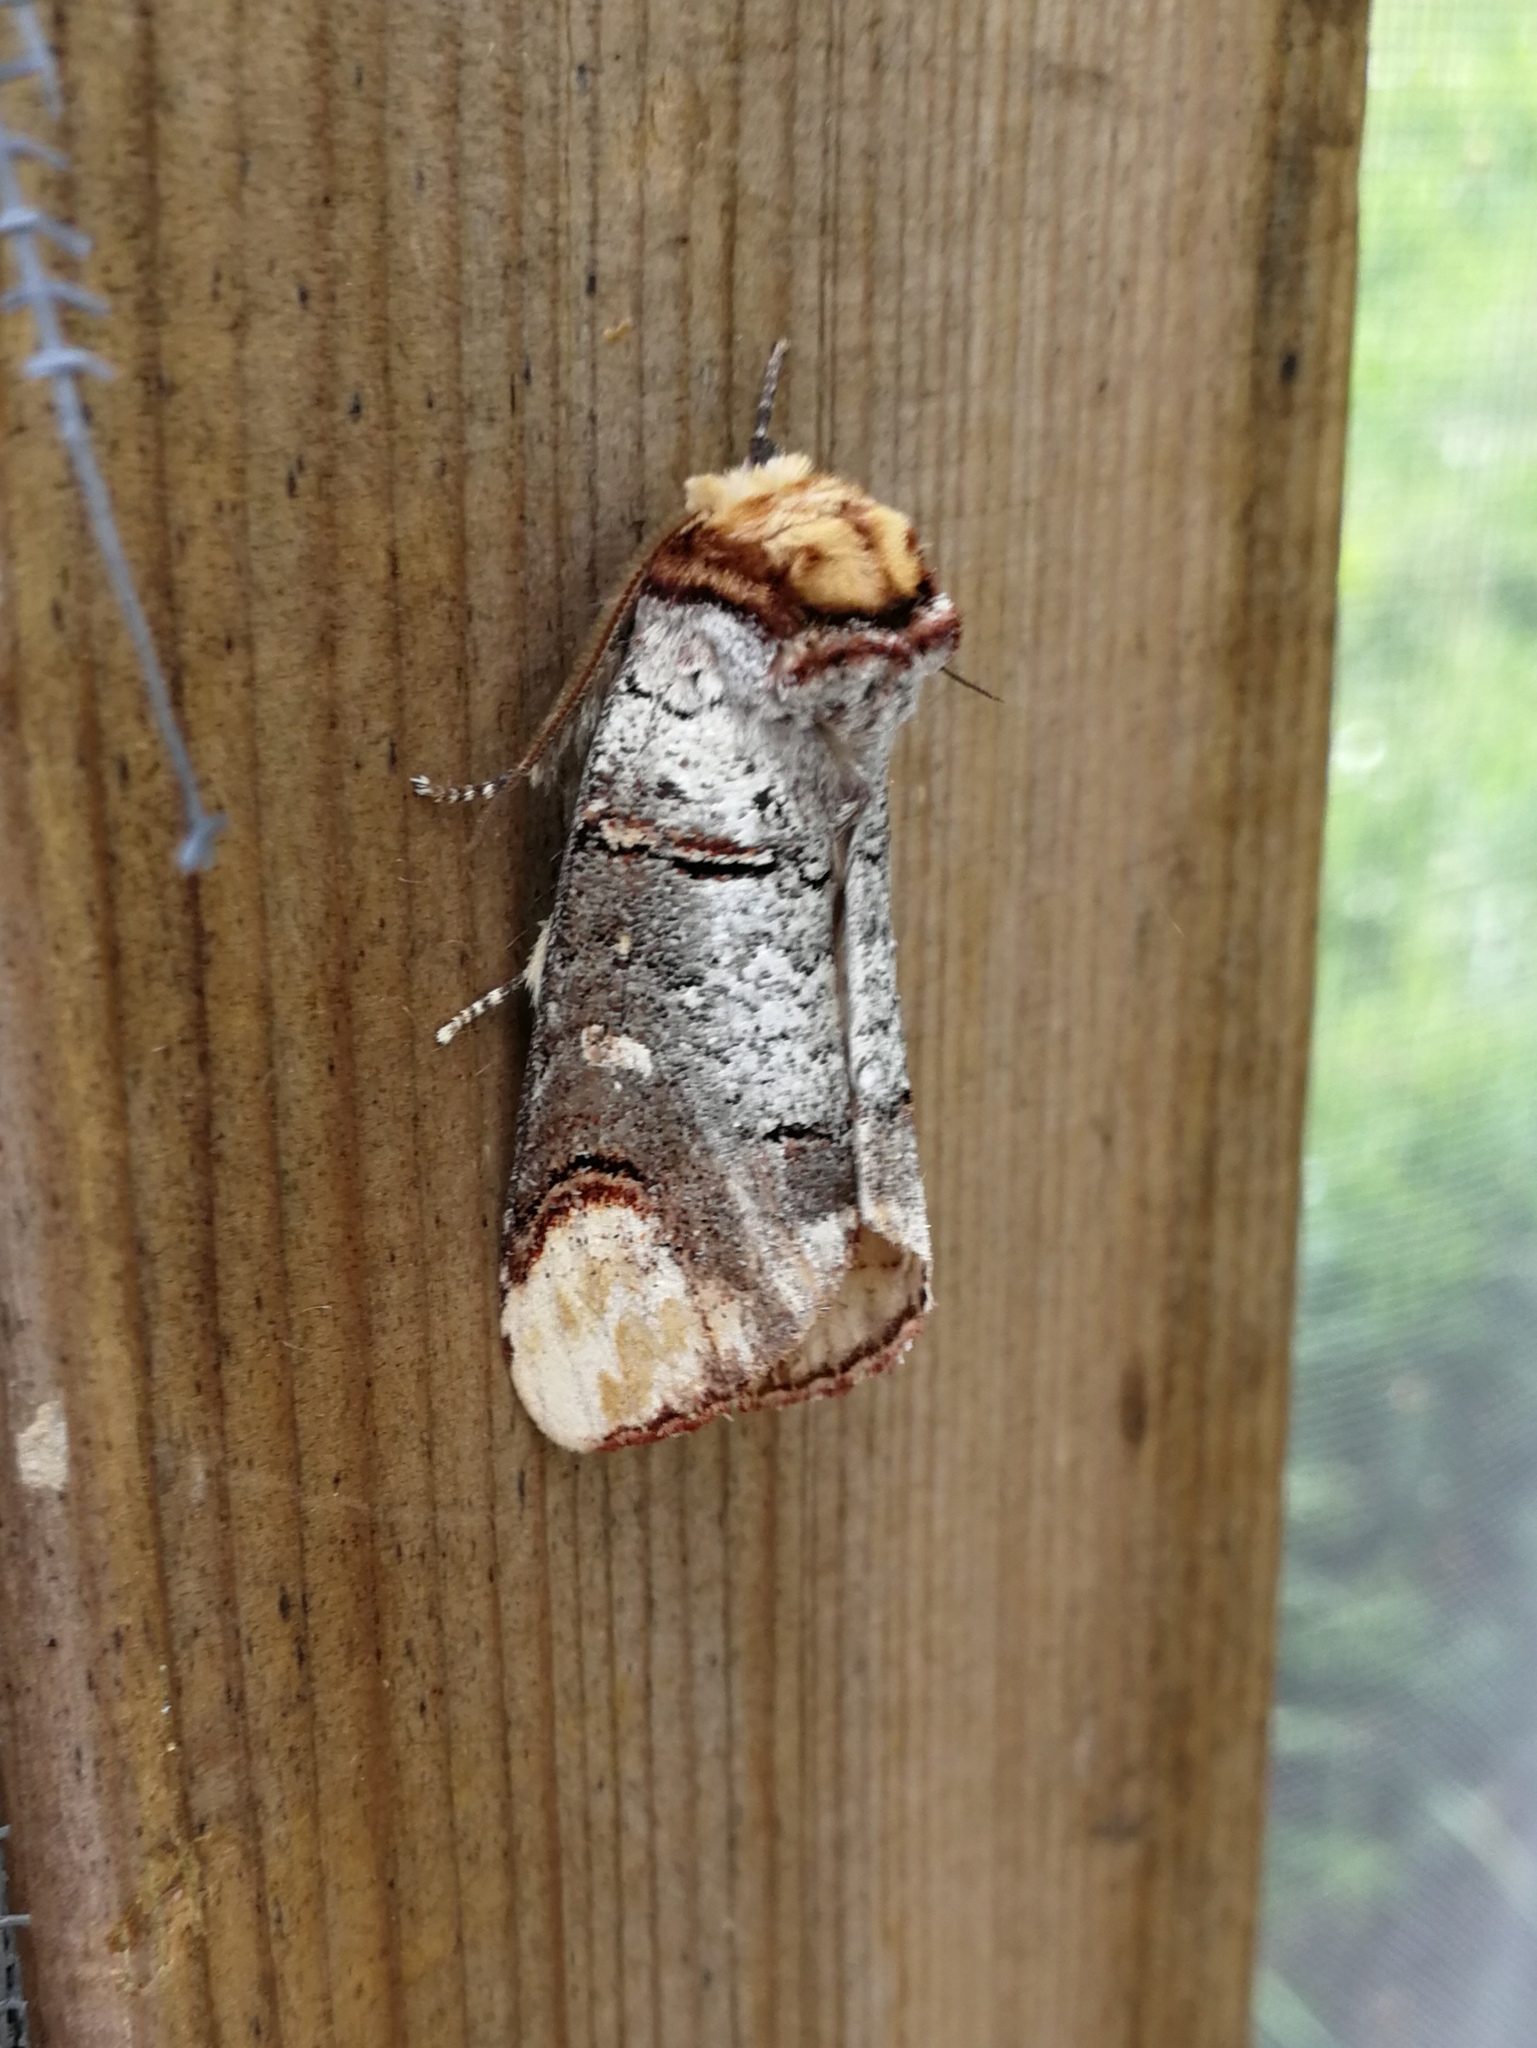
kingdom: Animalia
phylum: Arthropoda
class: Insecta
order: Lepidoptera
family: Notodontidae
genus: Phalera
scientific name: Phalera bucephala
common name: Buff-tip
